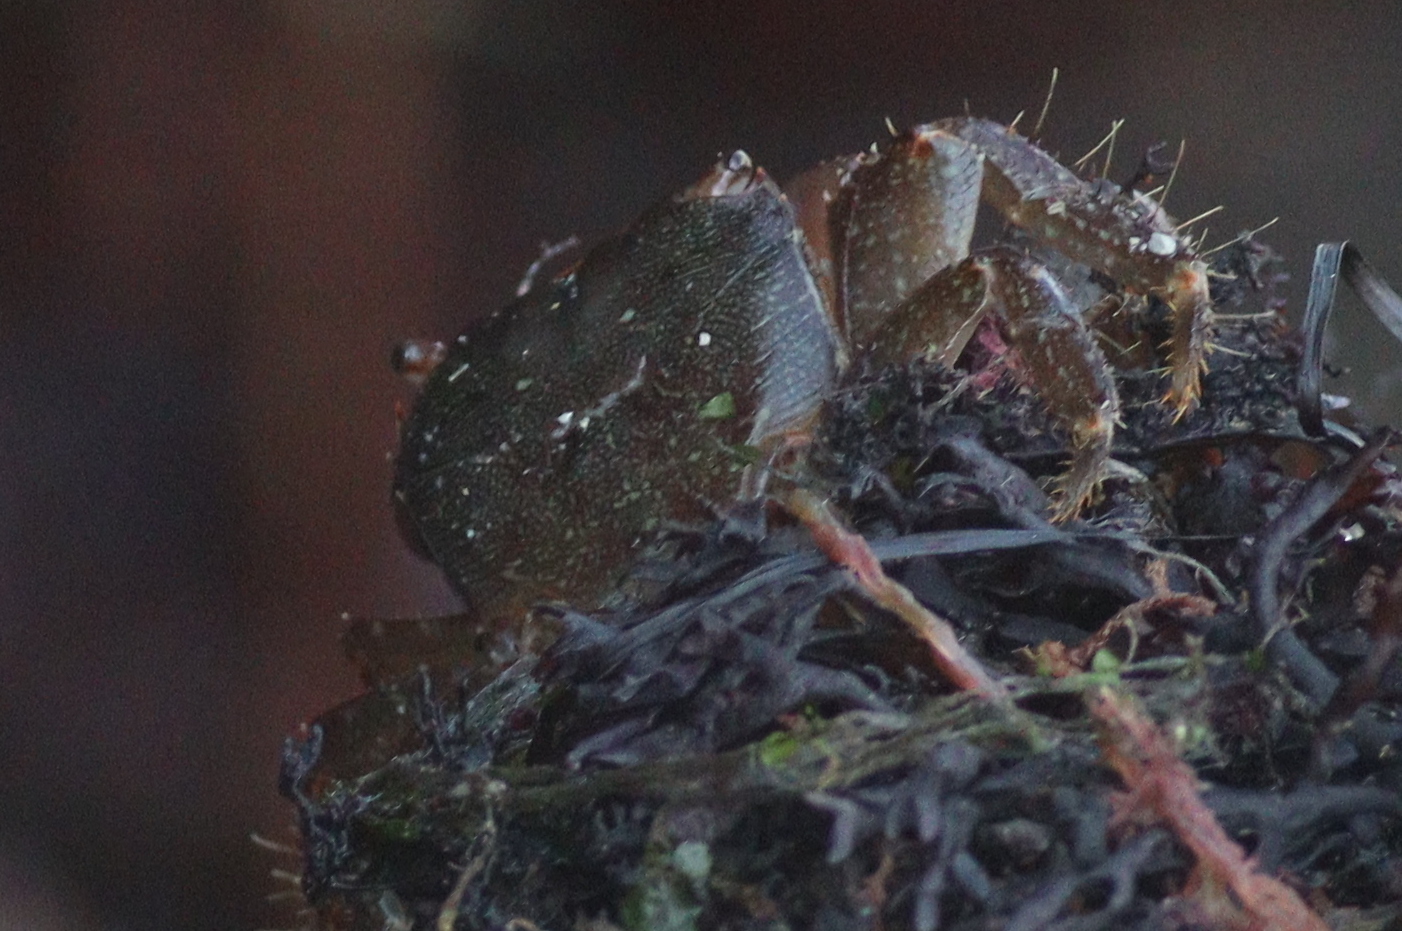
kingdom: Animalia
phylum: Arthropoda
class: Malacostraca
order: Decapoda
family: Grapsidae
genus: Pachygrapsus
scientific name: Pachygrapsus marmoratus
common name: Marbled rock crab
